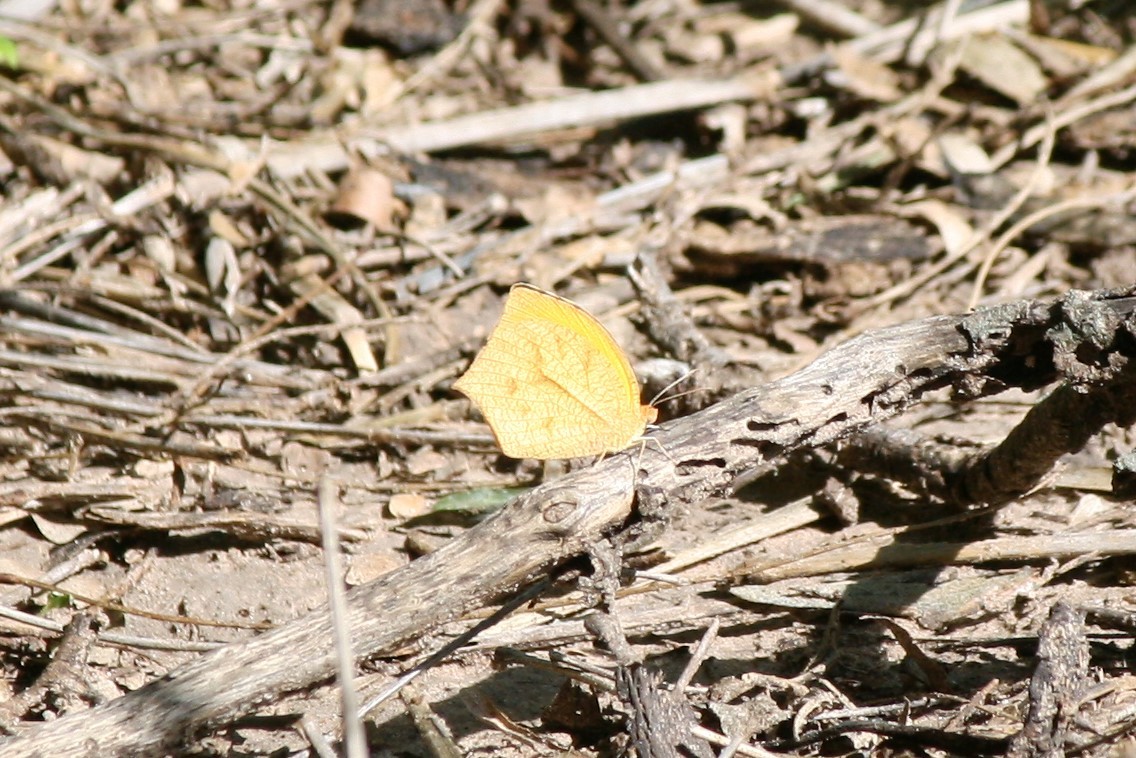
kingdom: Animalia
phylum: Arthropoda
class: Insecta
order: Lepidoptera
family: Pieridae
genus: Pyrisitia
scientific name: Pyrisitia proterpia
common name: Tailed orange
